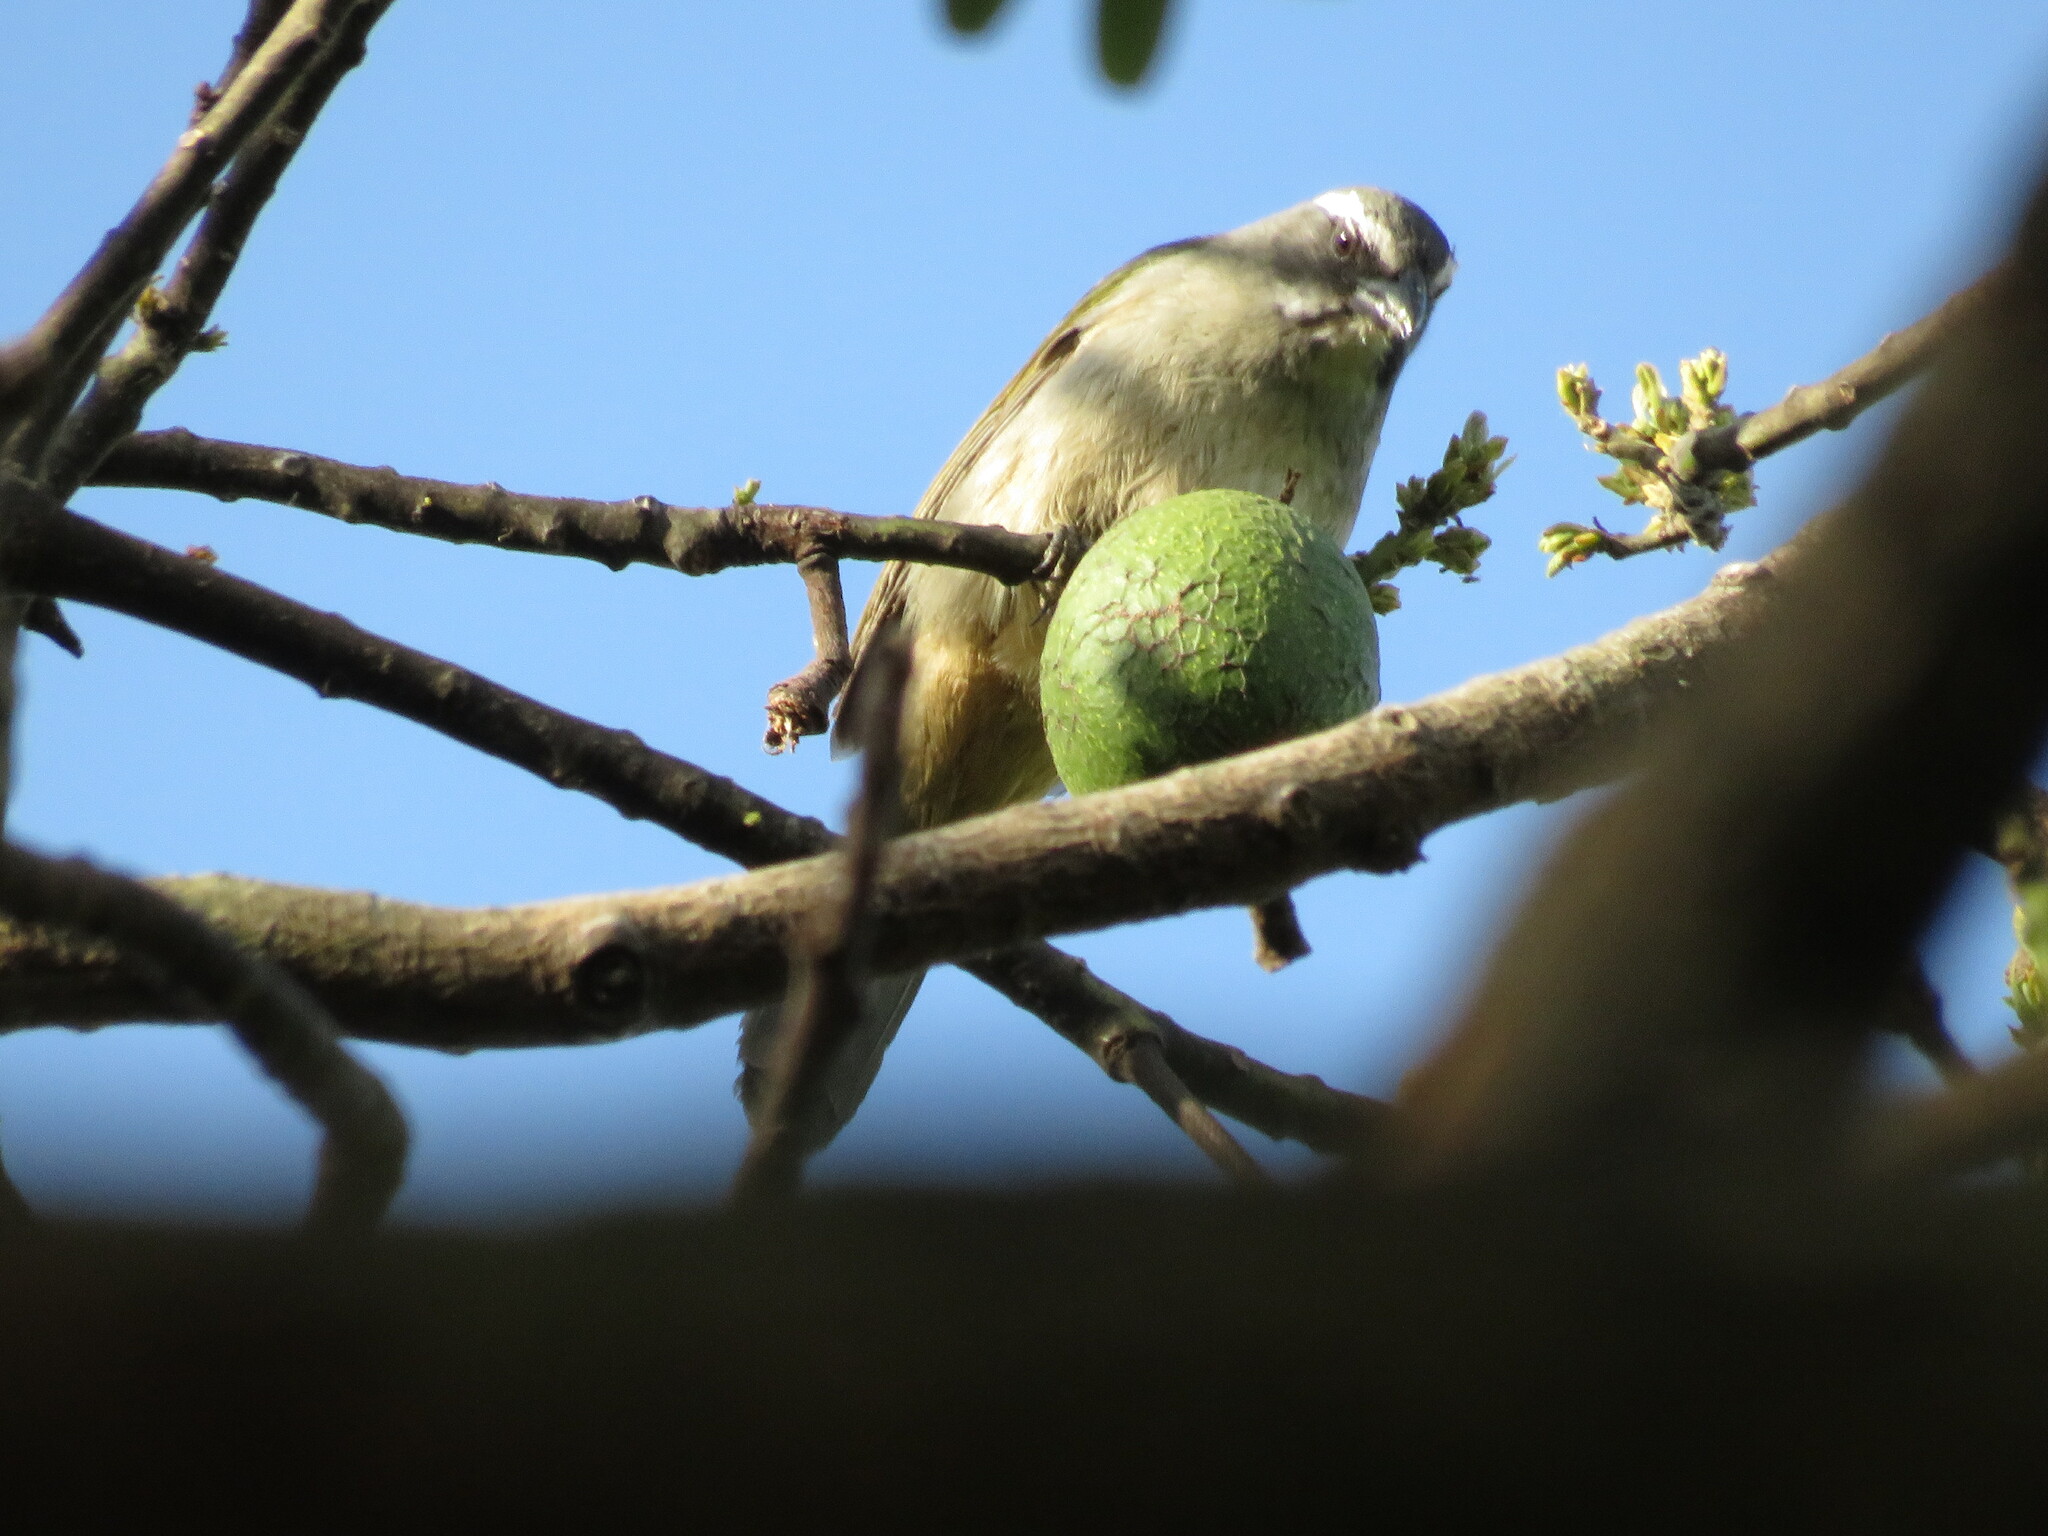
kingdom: Animalia
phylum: Chordata
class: Aves
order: Passeriformes
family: Thraupidae
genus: Saltator
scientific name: Saltator similis
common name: Green-winged saltator
